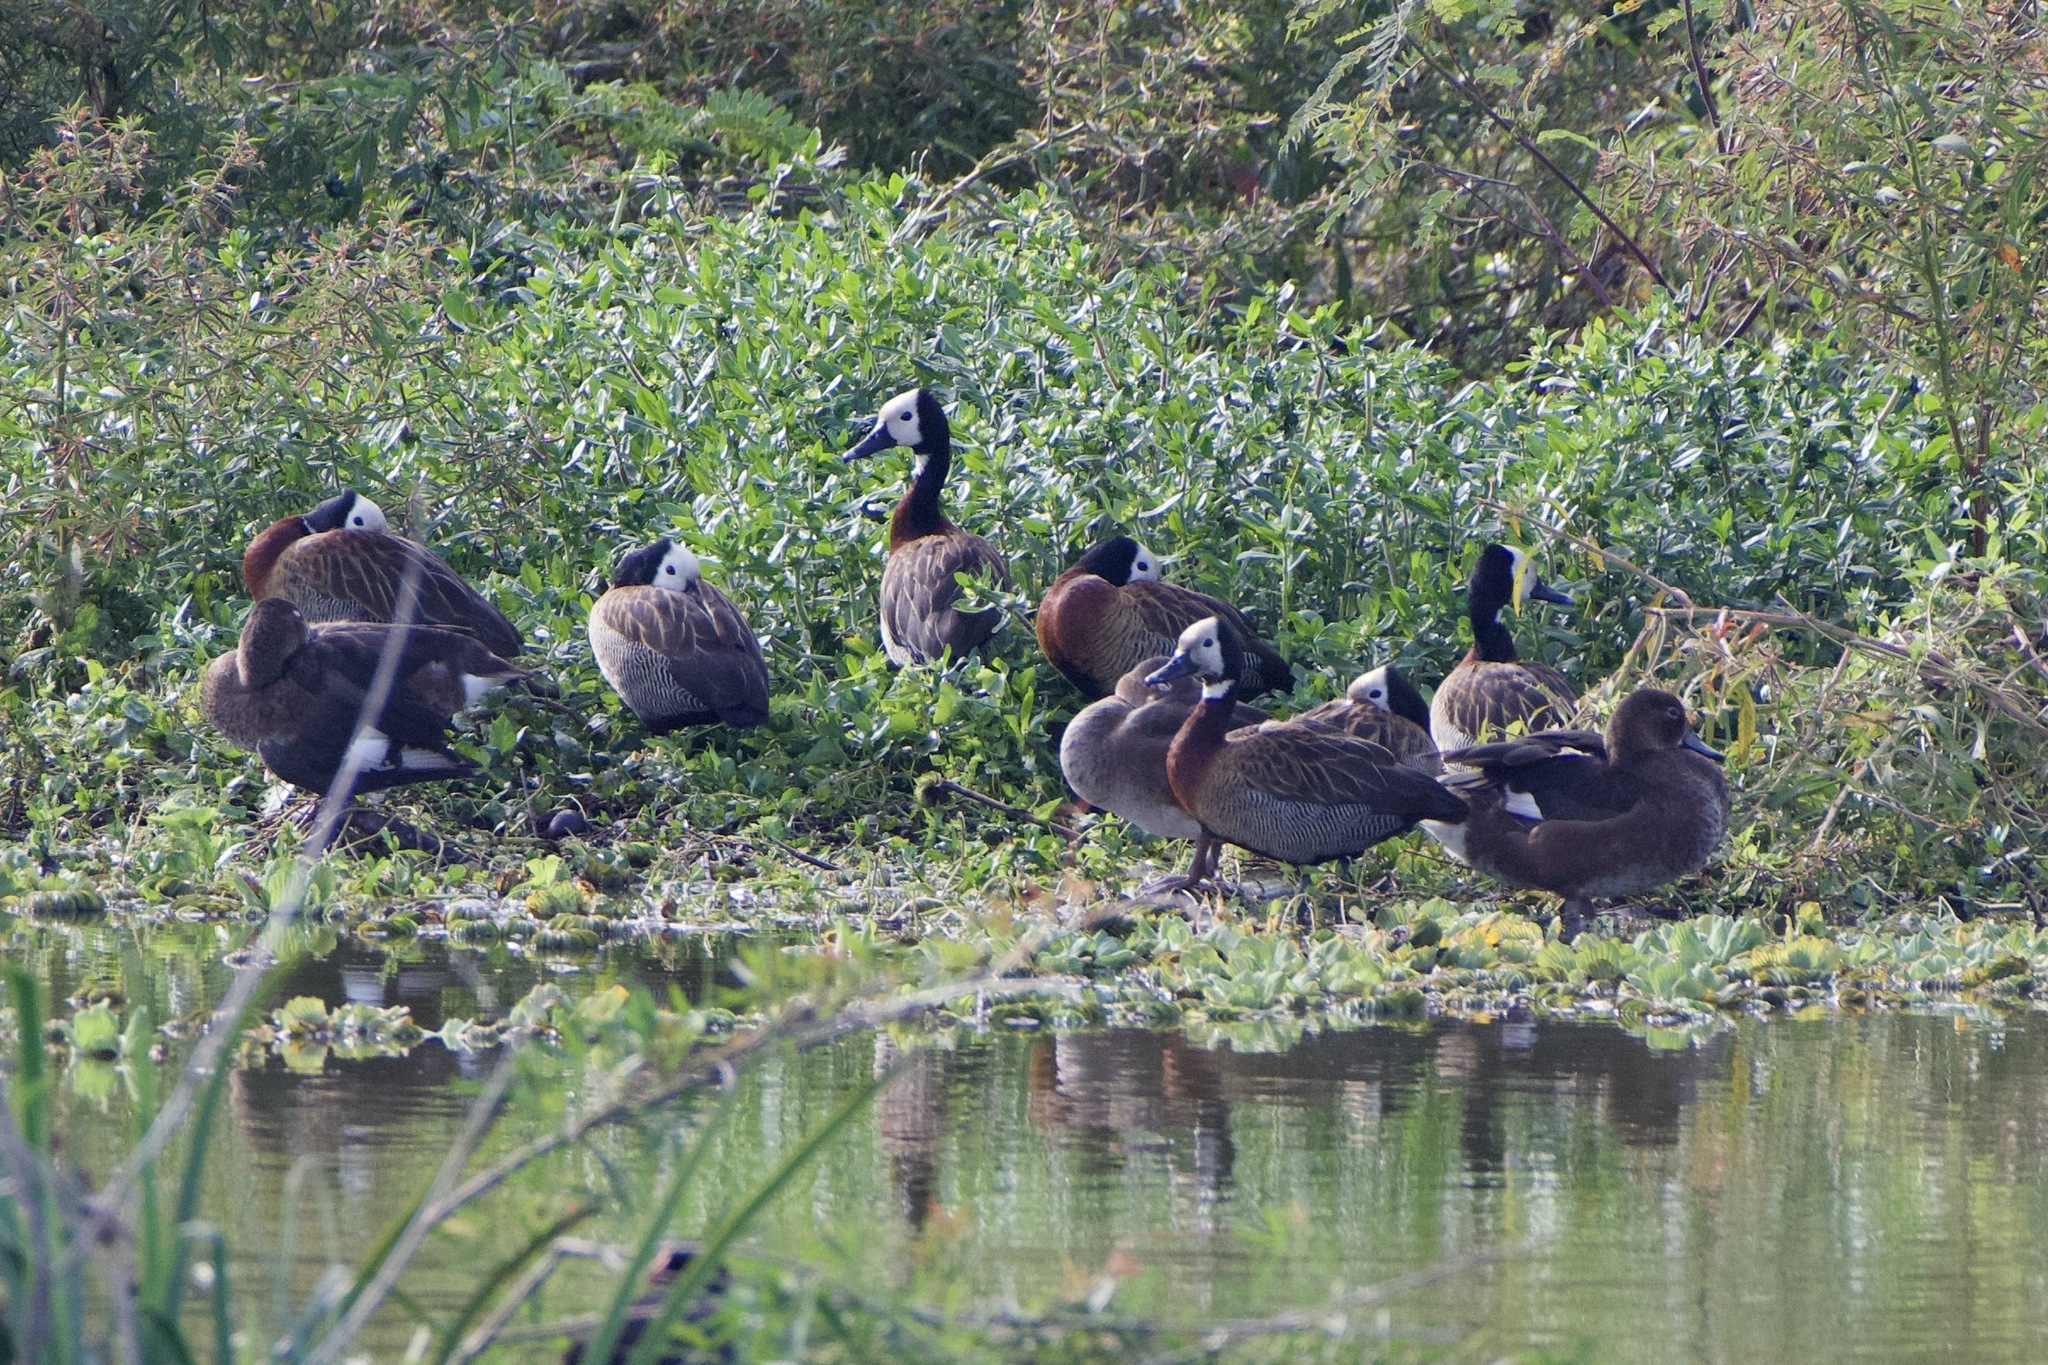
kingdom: Animalia
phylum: Chordata
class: Aves
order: Anseriformes
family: Anatidae
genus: Dendrocygna
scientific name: Dendrocygna viduata
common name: White-faced whistling duck
